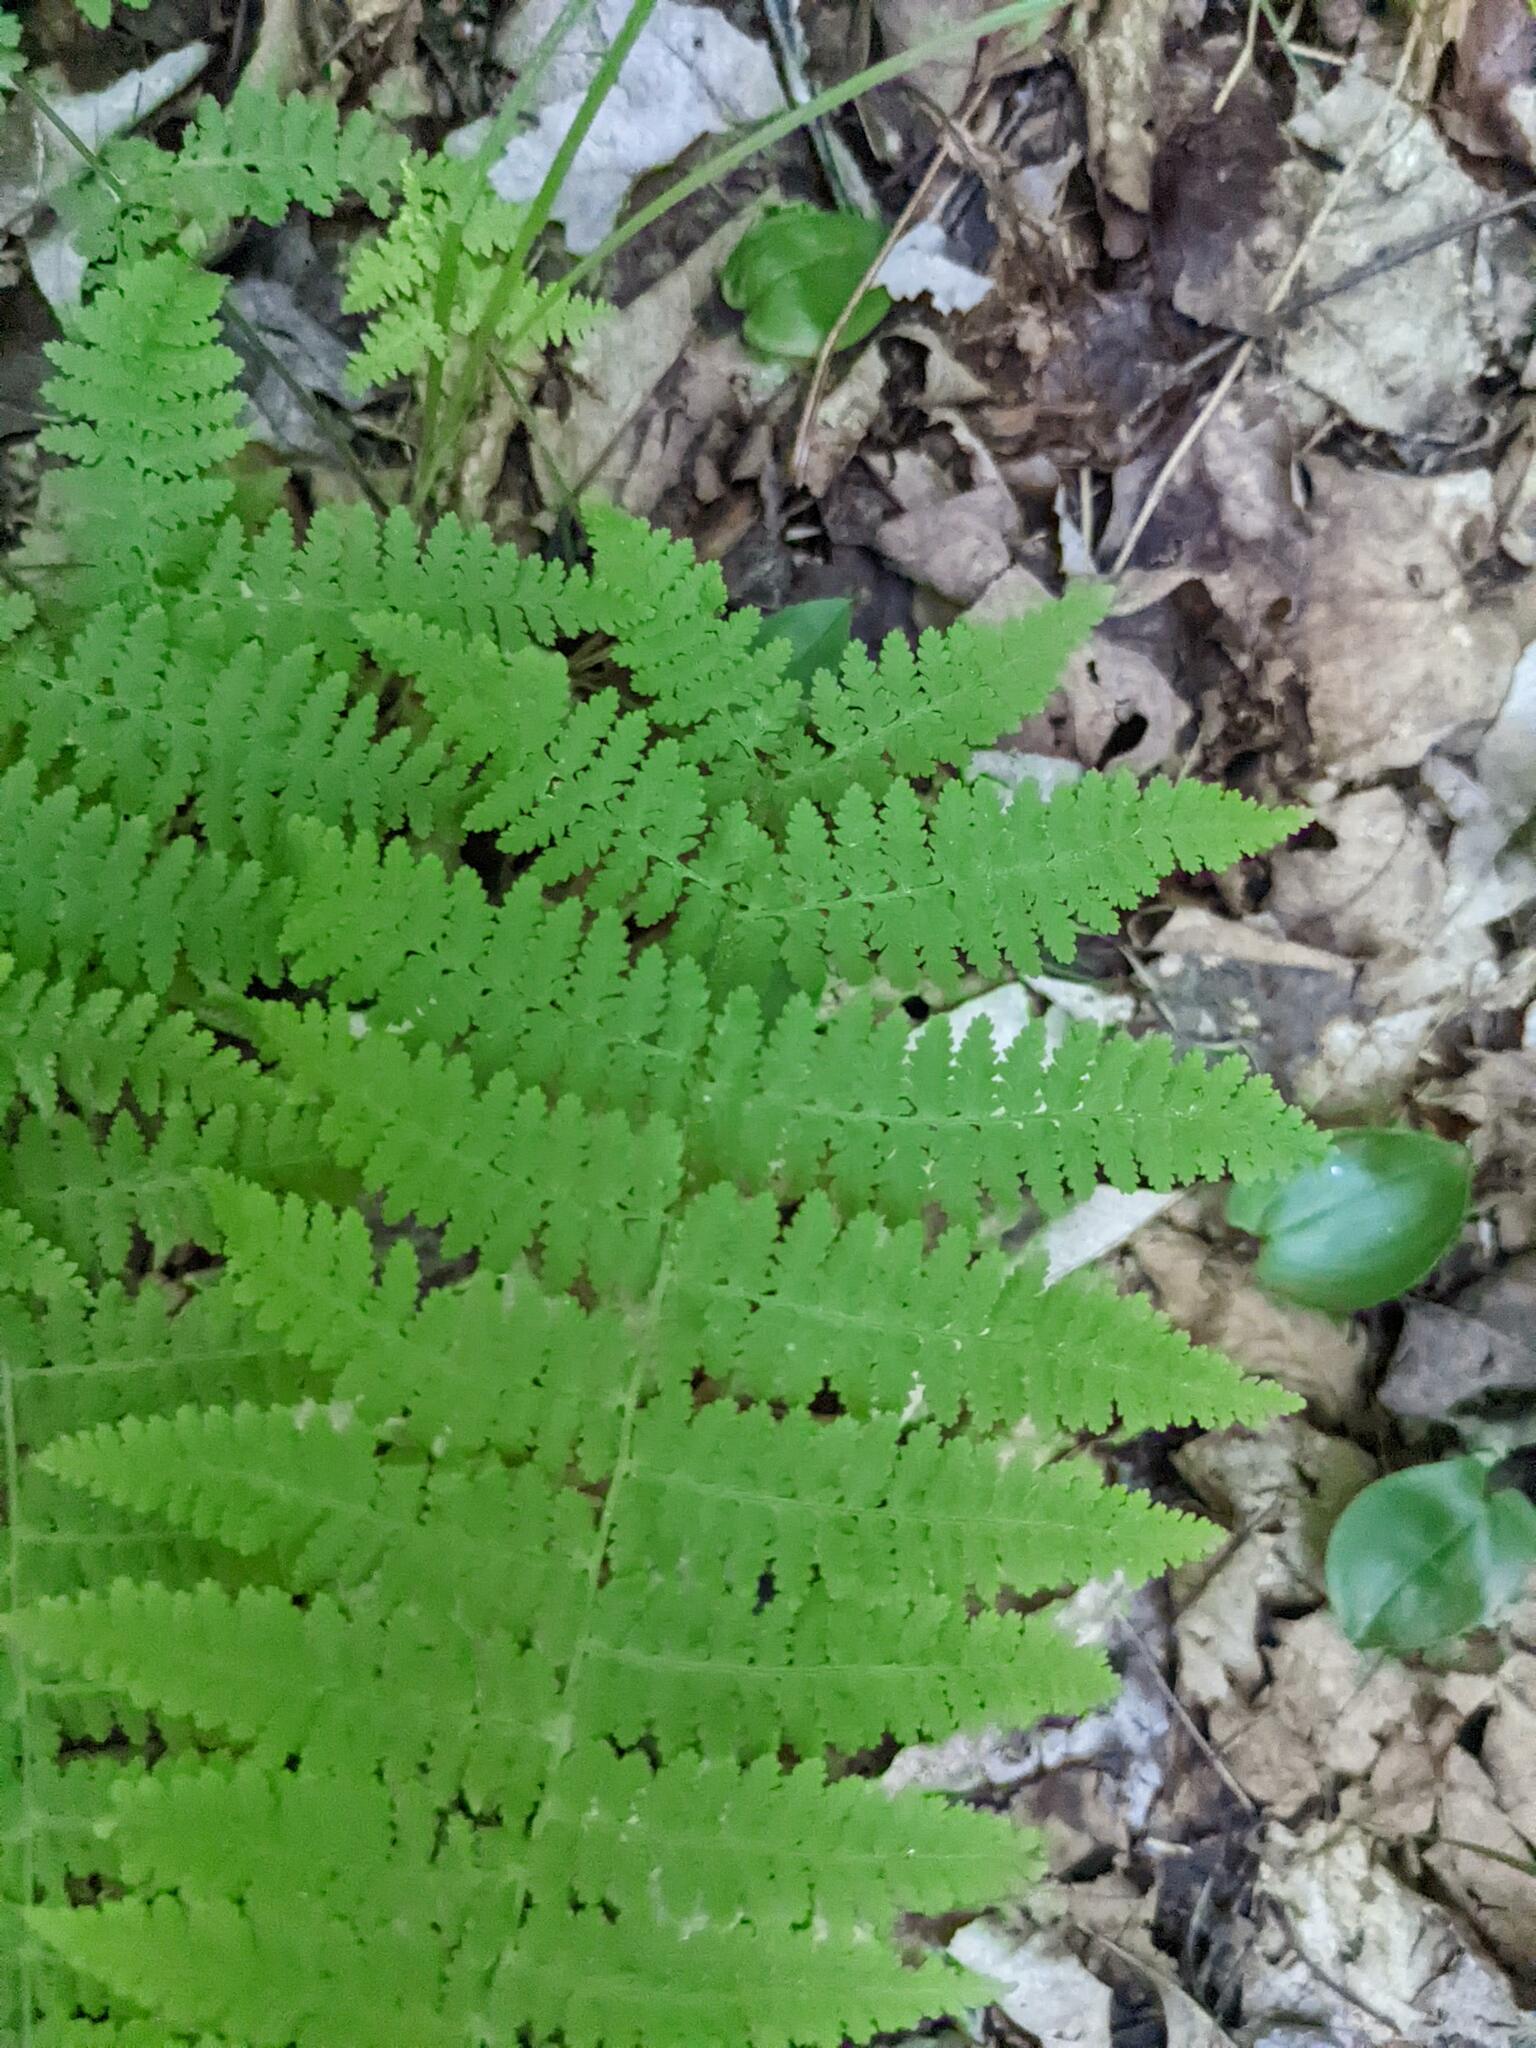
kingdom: Plantae
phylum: Tracheophyta
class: Polypodiopsida
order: Polypodiales
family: Dennstaedtiaceae
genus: Sitobolium
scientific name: Sitobolium punctilobum
